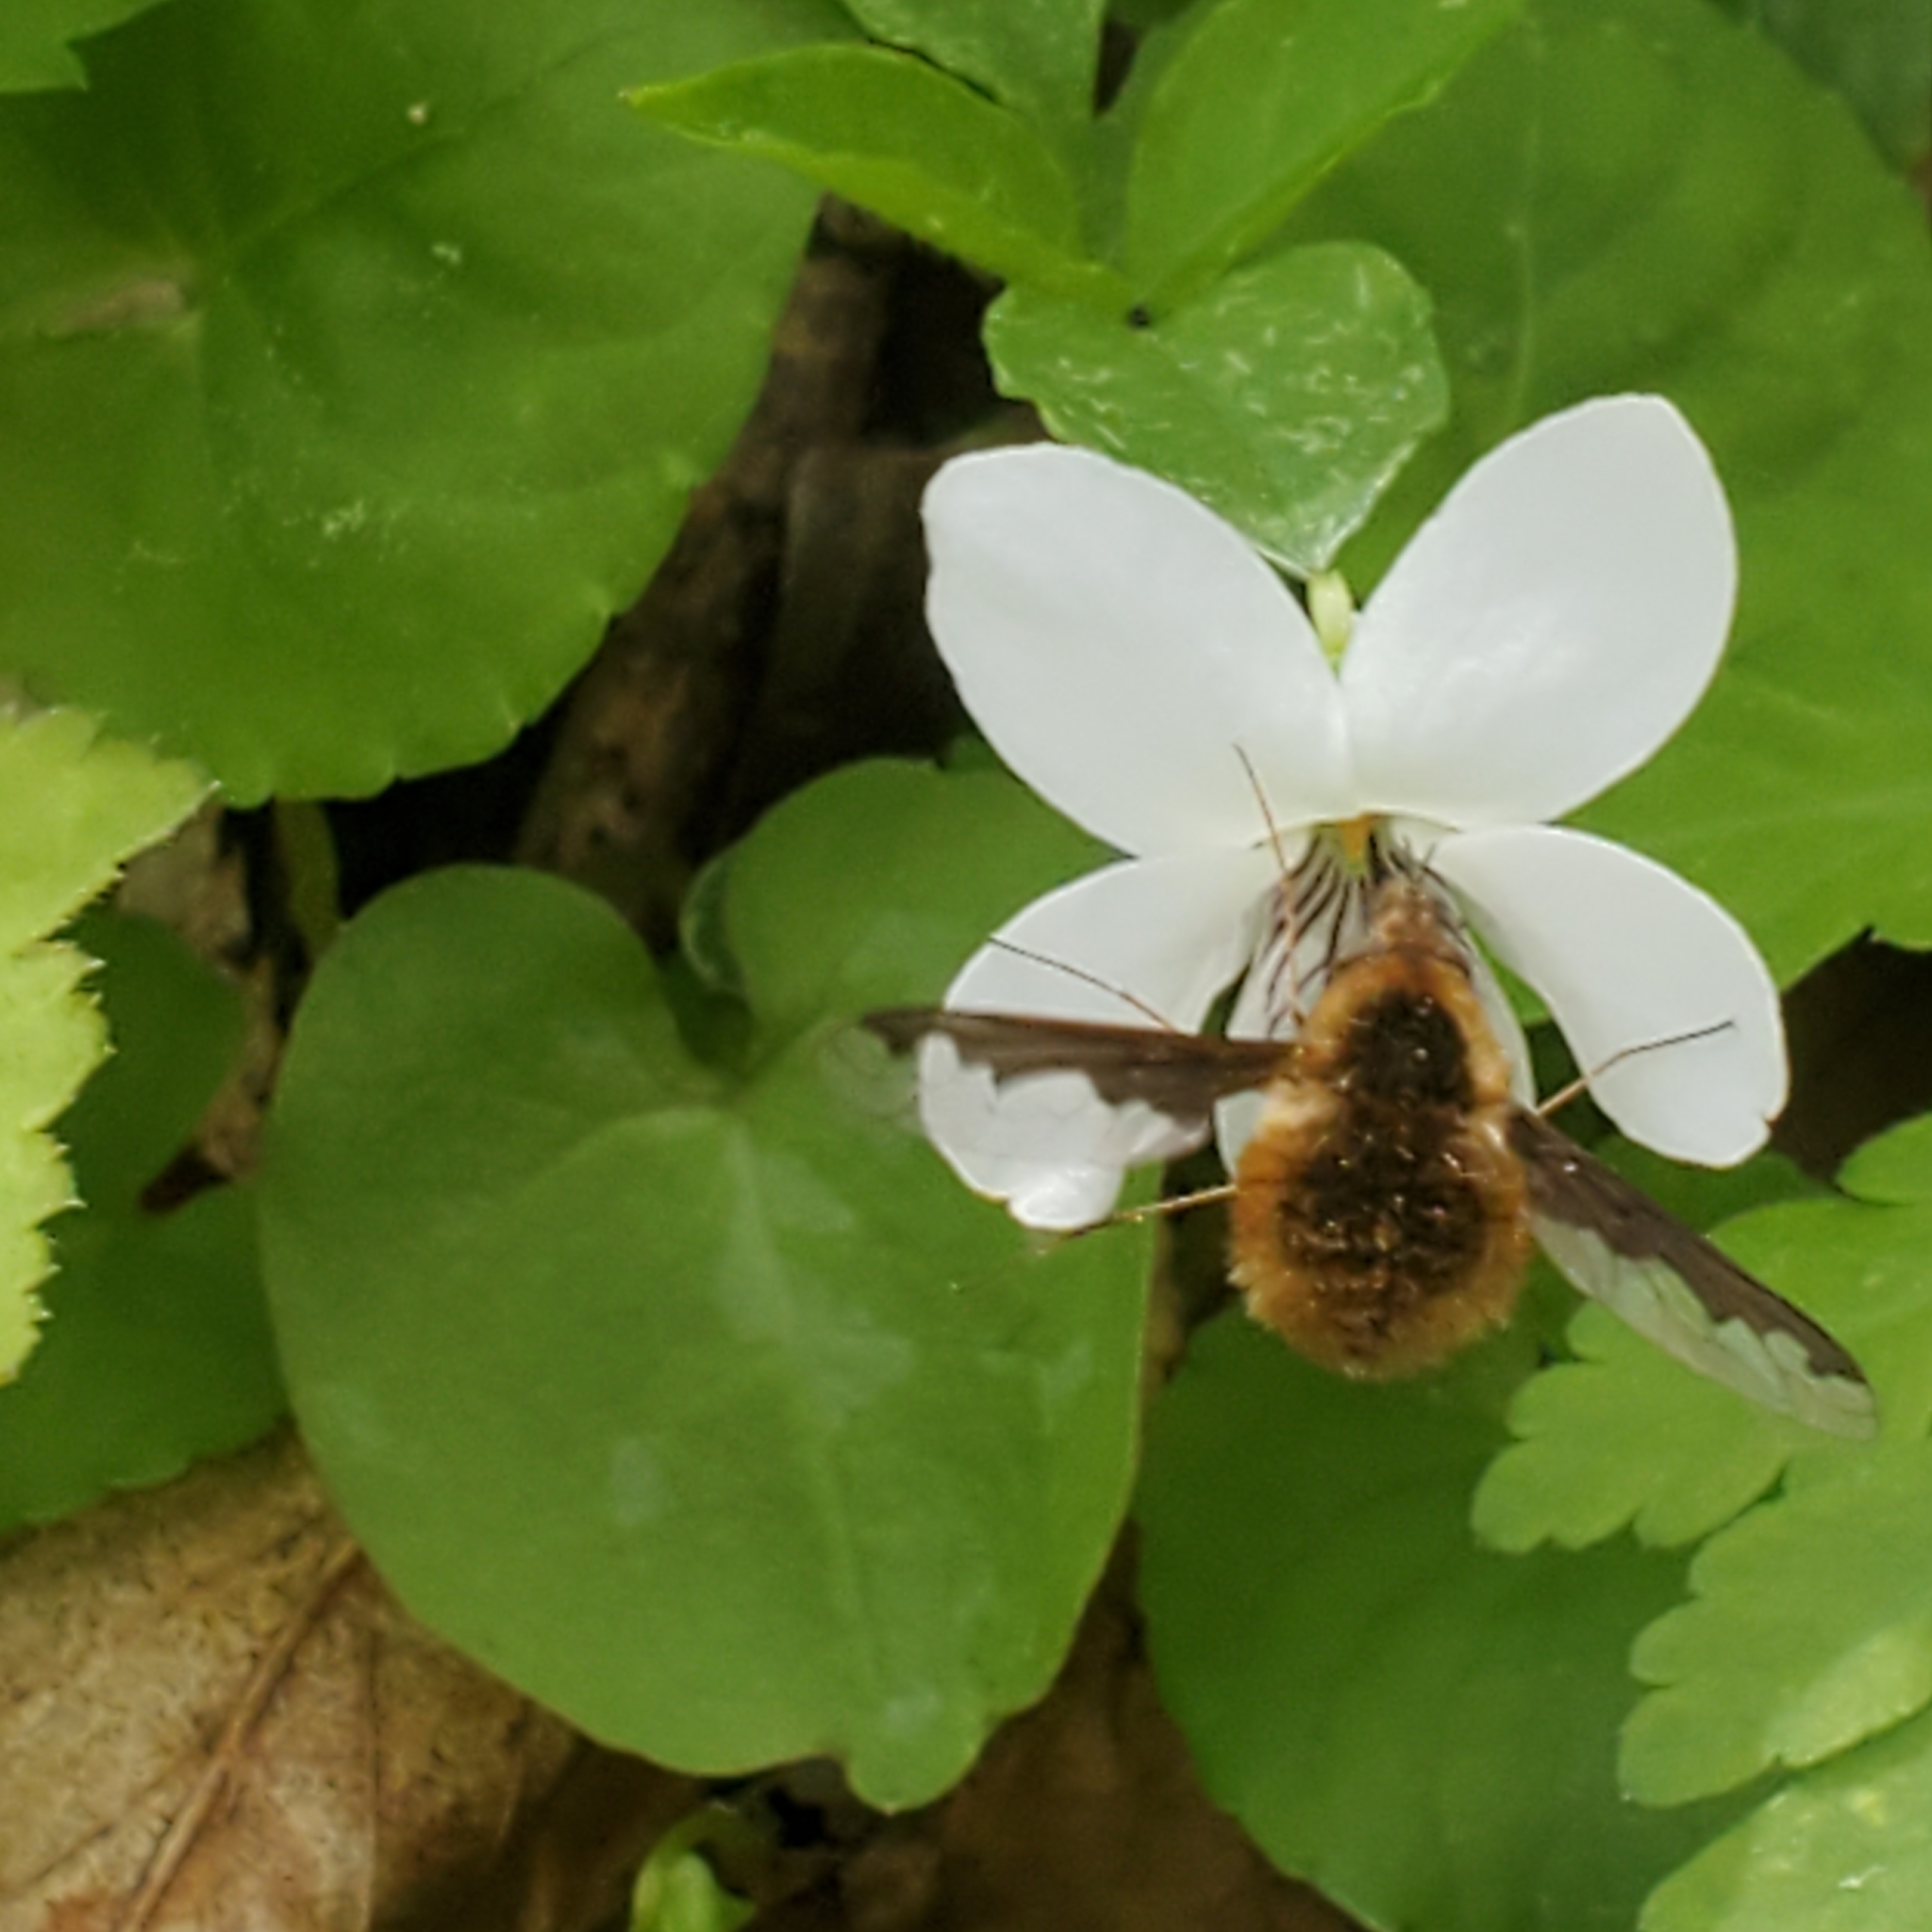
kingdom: Animalia
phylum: Arthropoda
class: Insecta
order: Diptera
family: Bombyliidae
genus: Bombylius
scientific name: Bombylius major
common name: Bee fly
